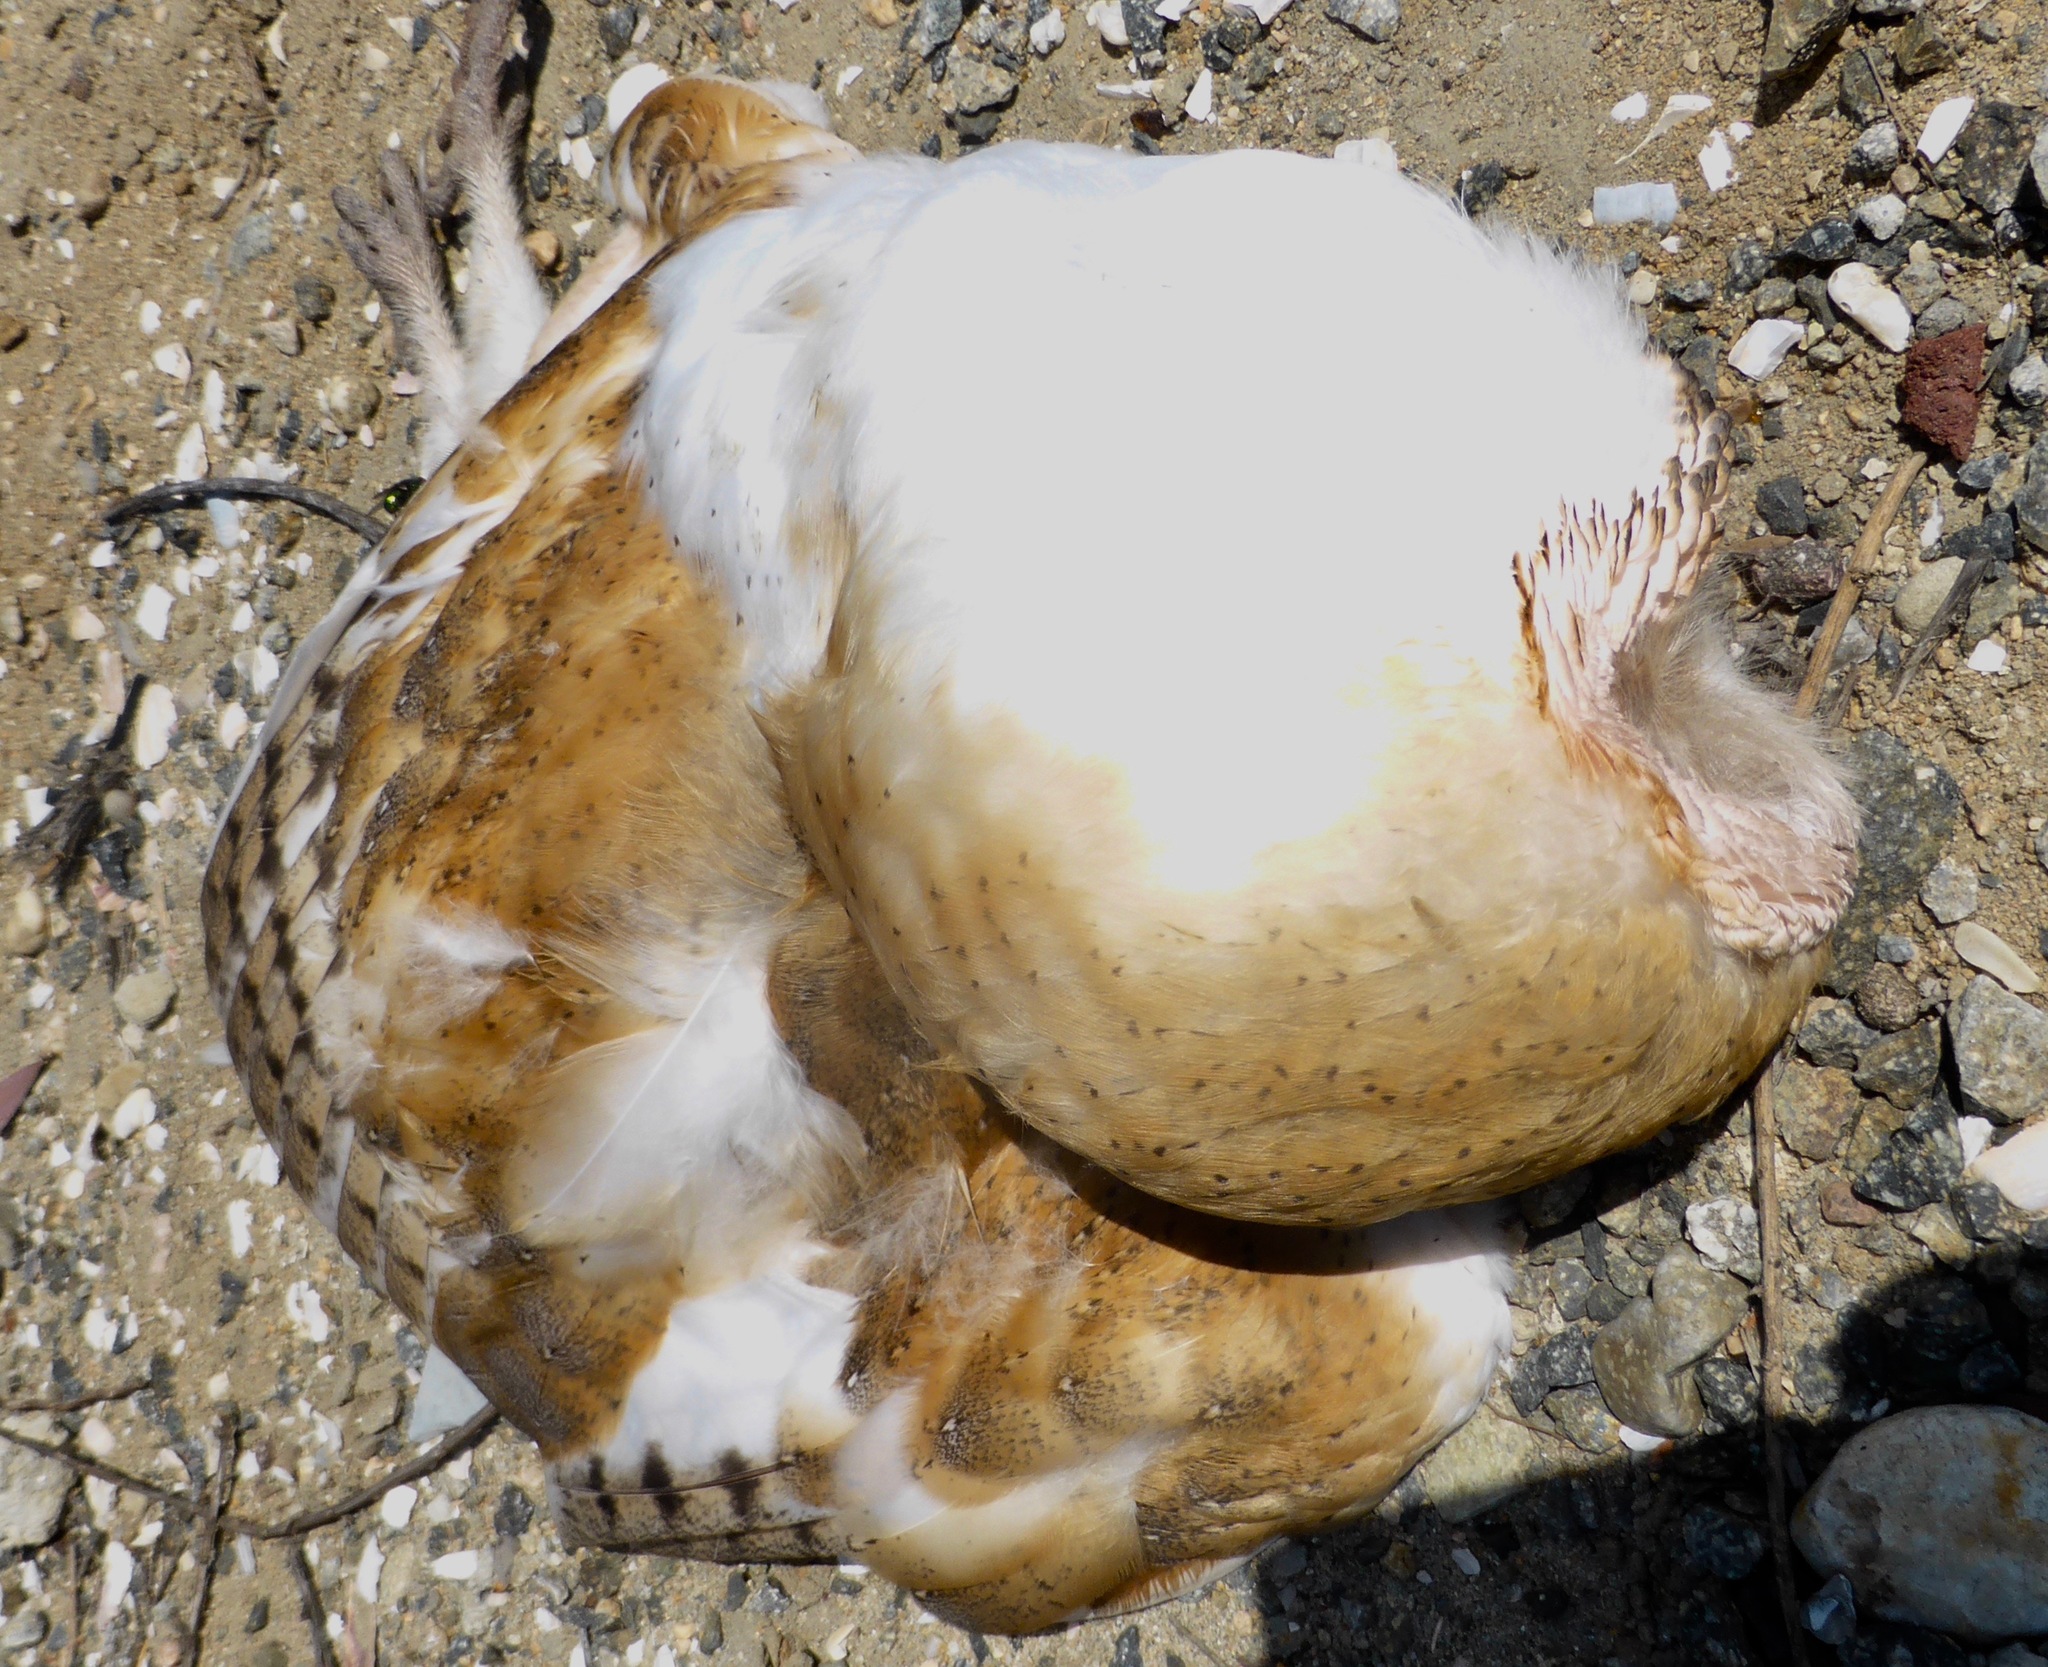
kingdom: Animalia
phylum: Chordata
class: Aves
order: Strigiformes
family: Tytonidae
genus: Tyto
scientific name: Tyto alba
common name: Barn owl
